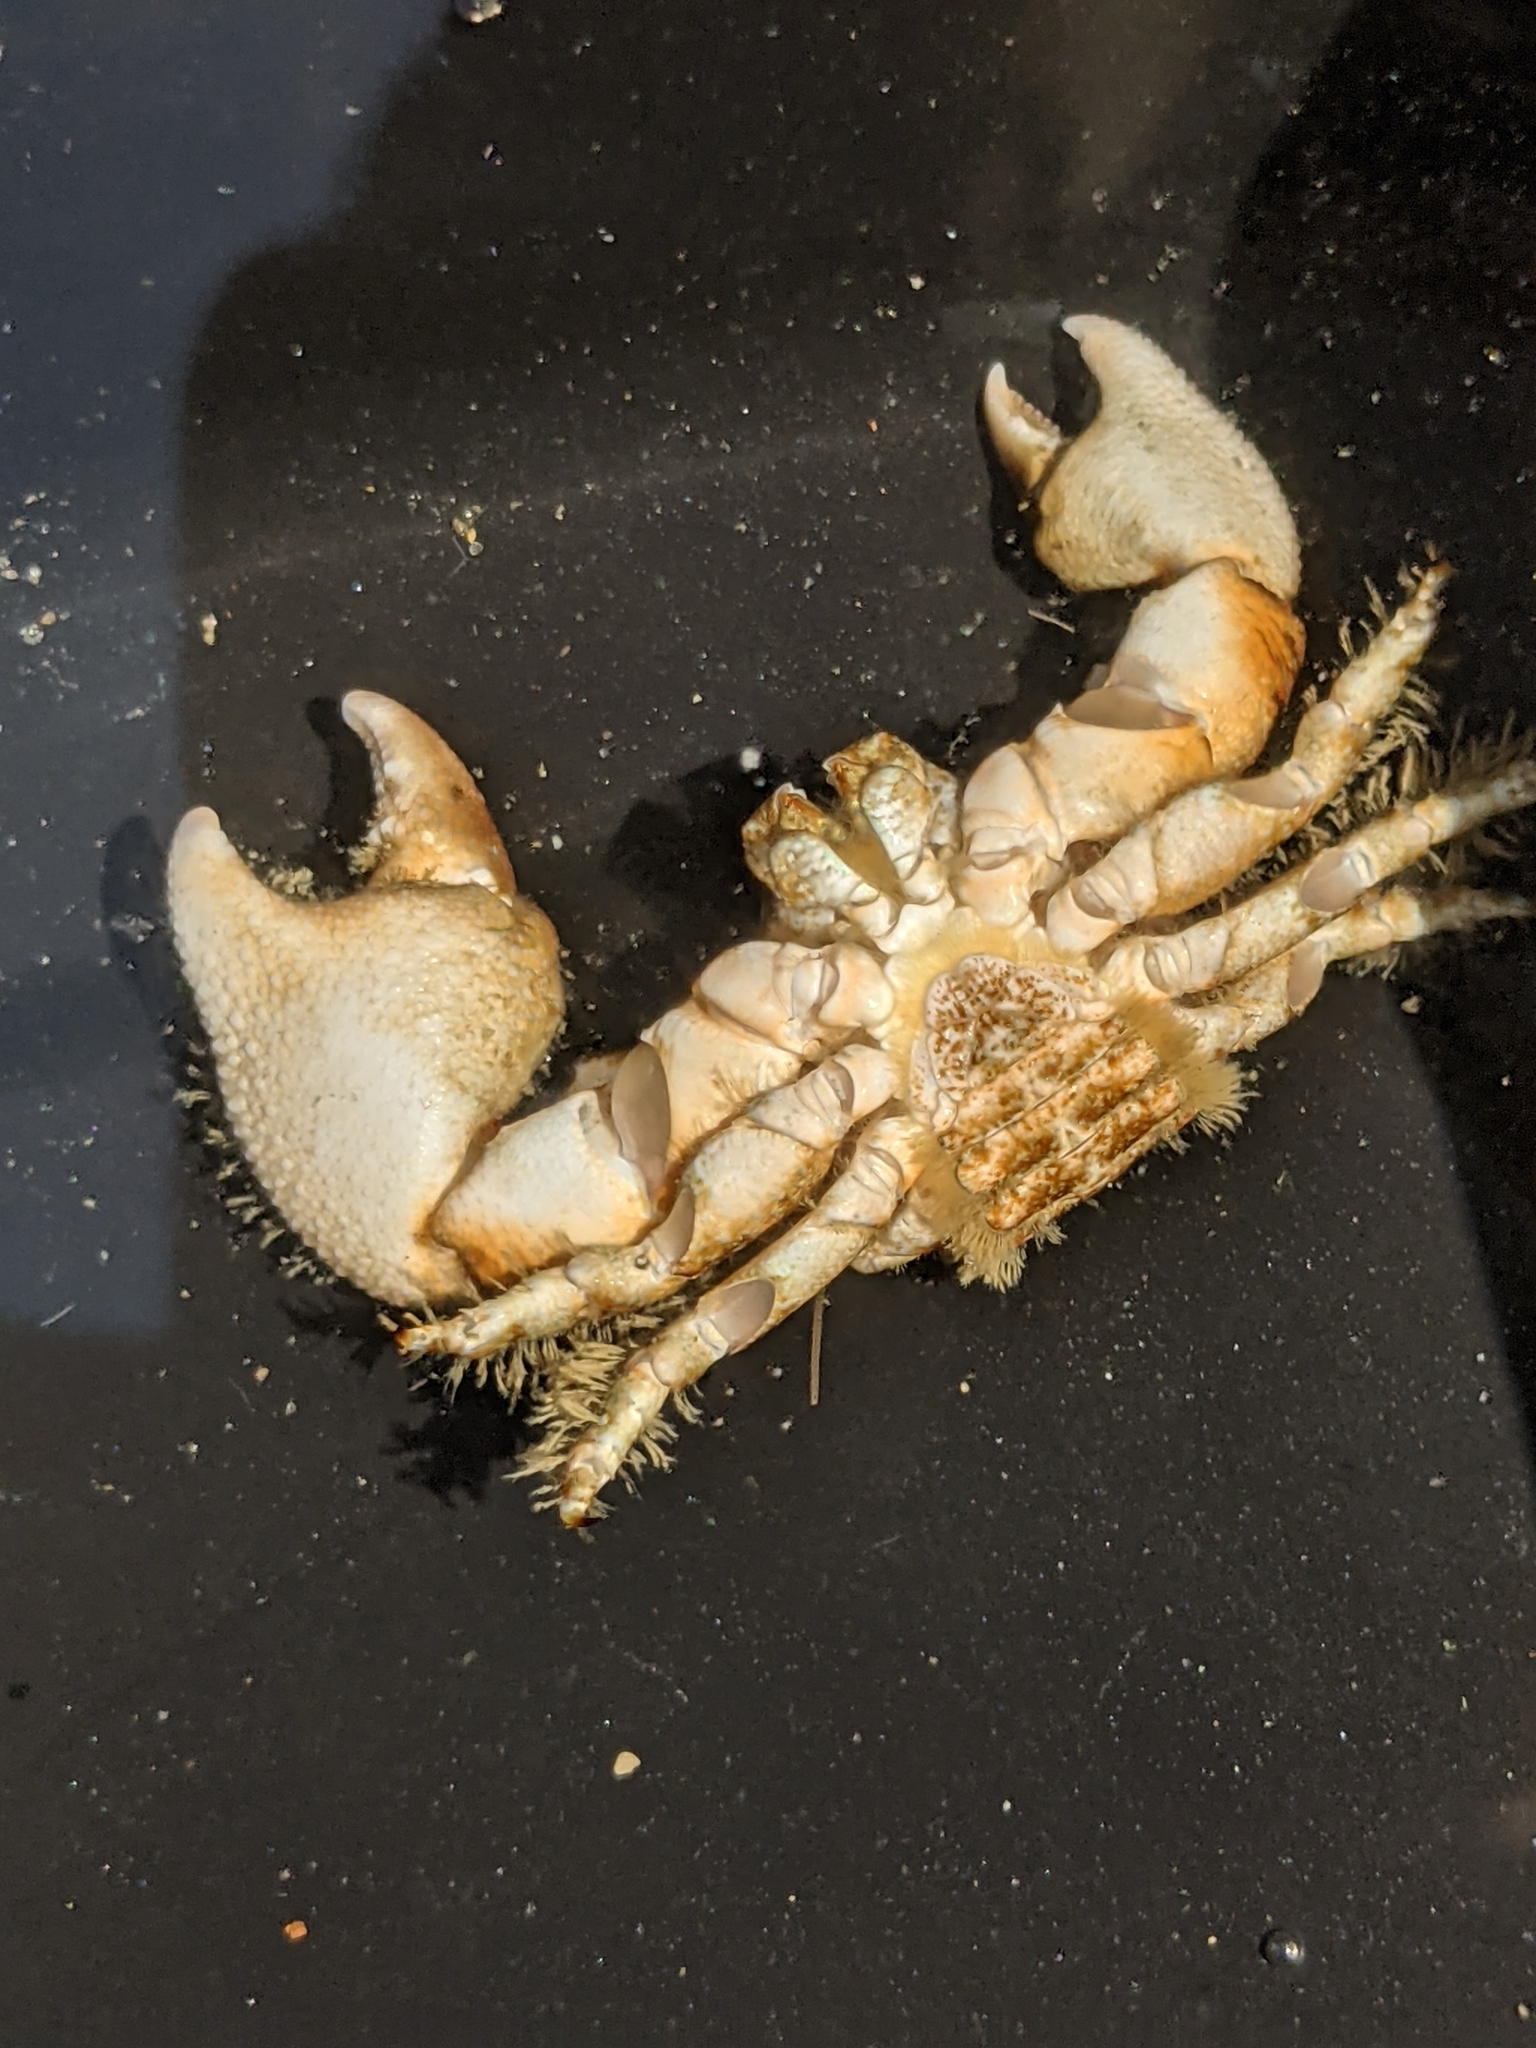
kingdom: Animalia
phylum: Arthropoda
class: Malacostraca
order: Decapoda
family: Porcellanidae
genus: Pachycheles
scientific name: Pachycheles rudis
